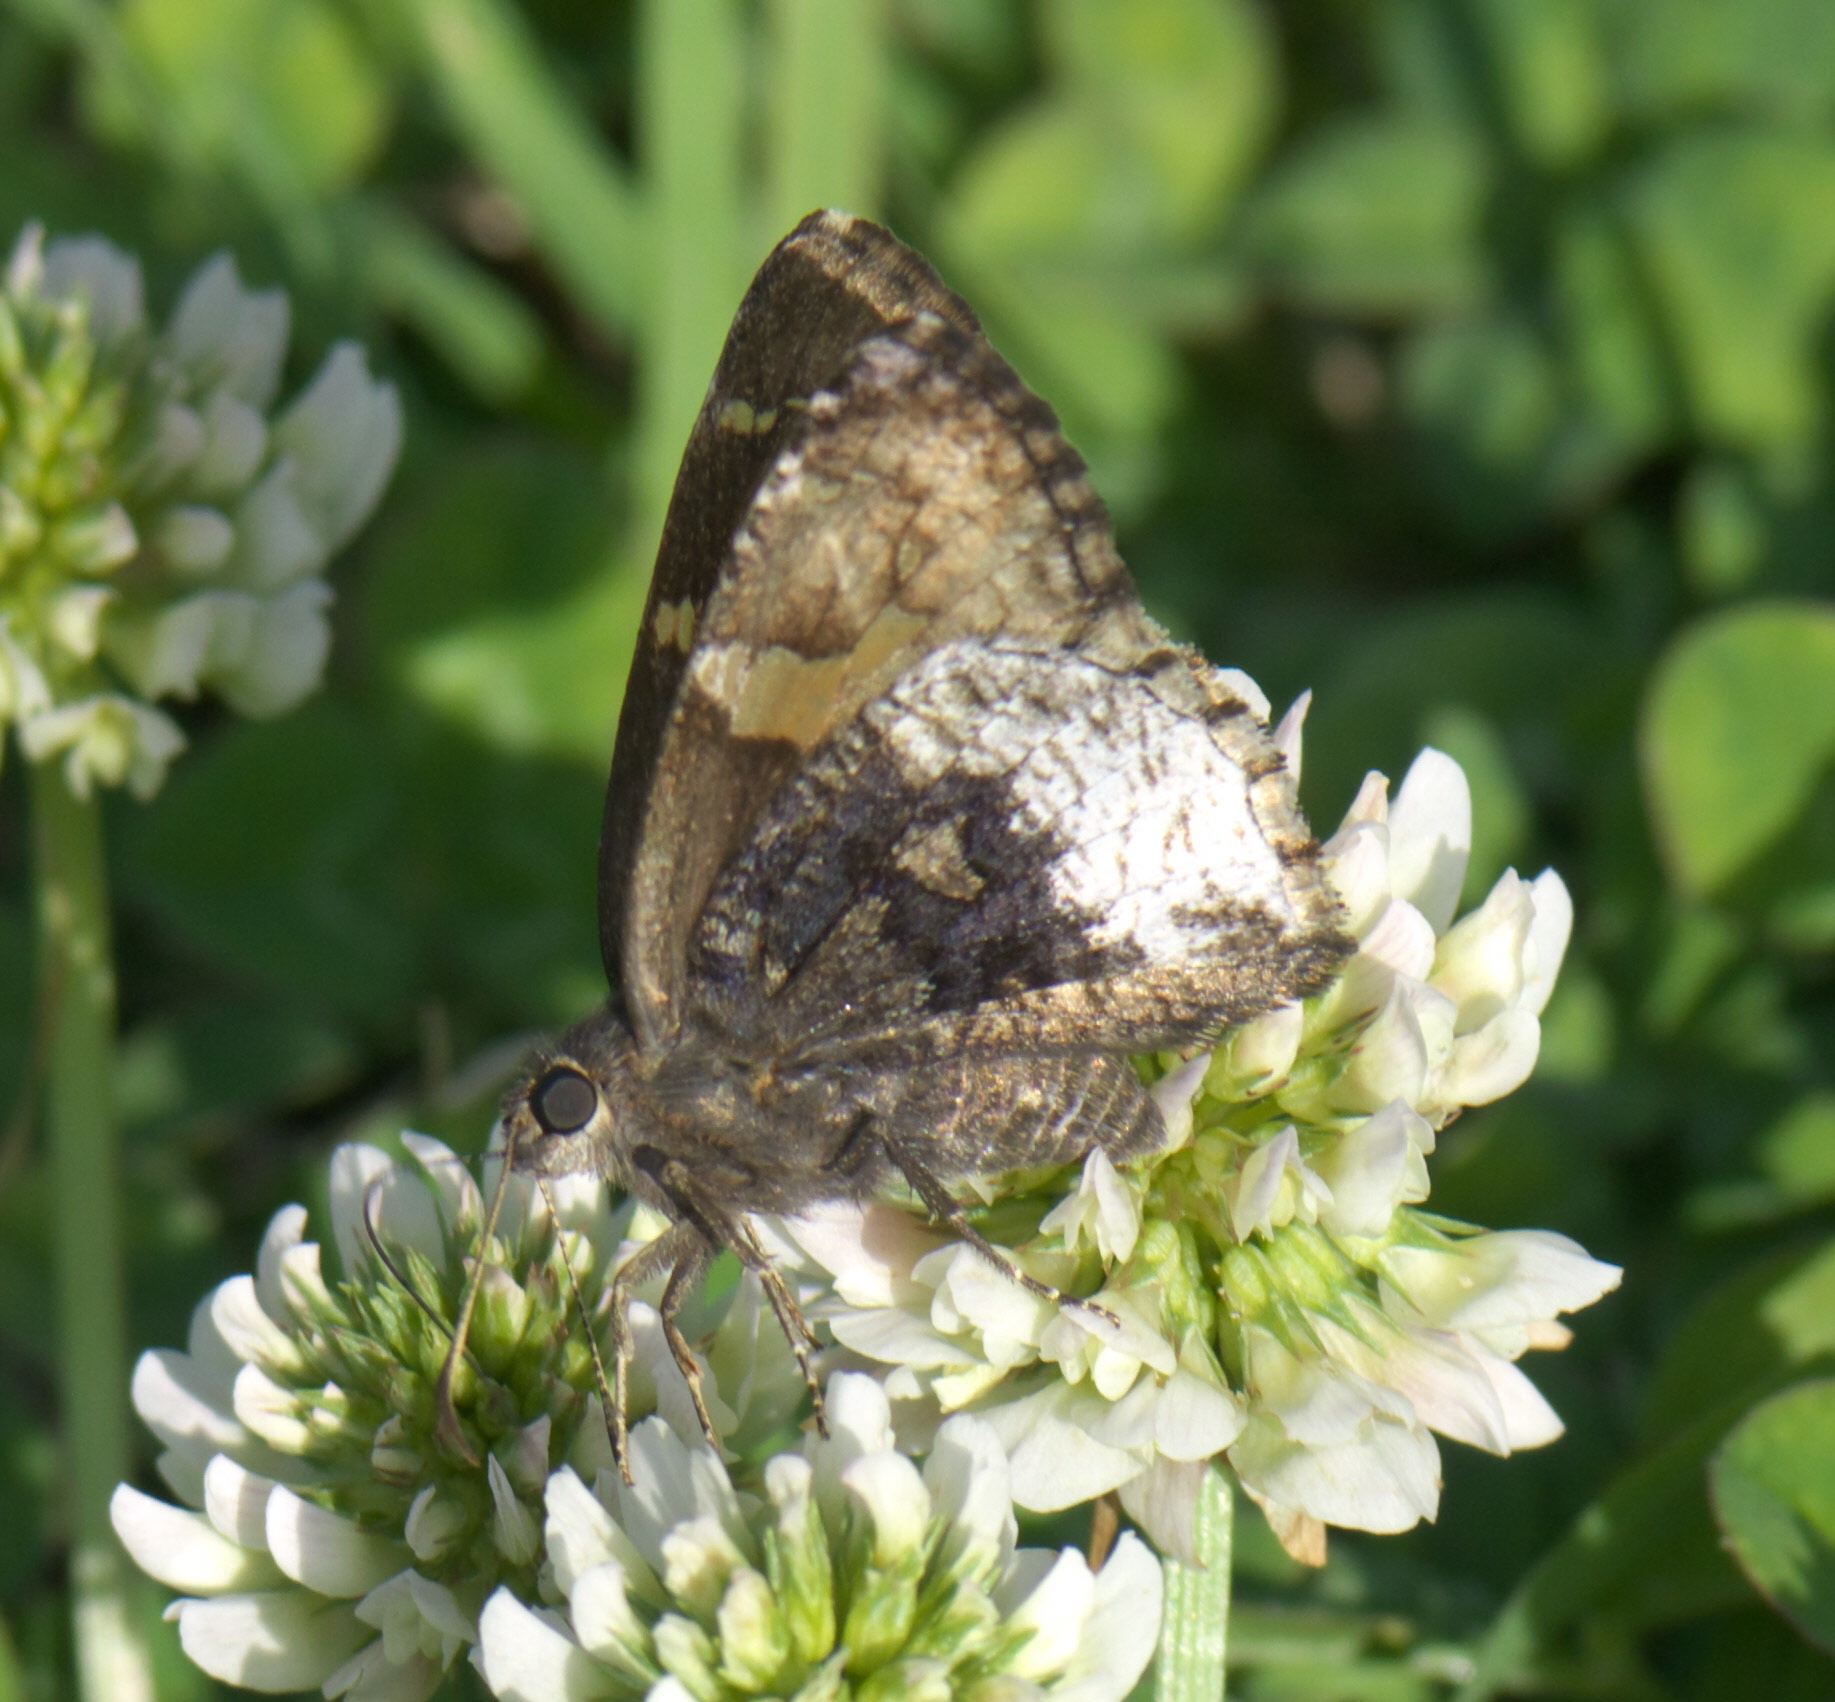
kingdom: Animalia
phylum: Arthropoda
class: Insecta
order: Lepidoptera
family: Hesperiidae
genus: Thorybes
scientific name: Thorybes lyciades
